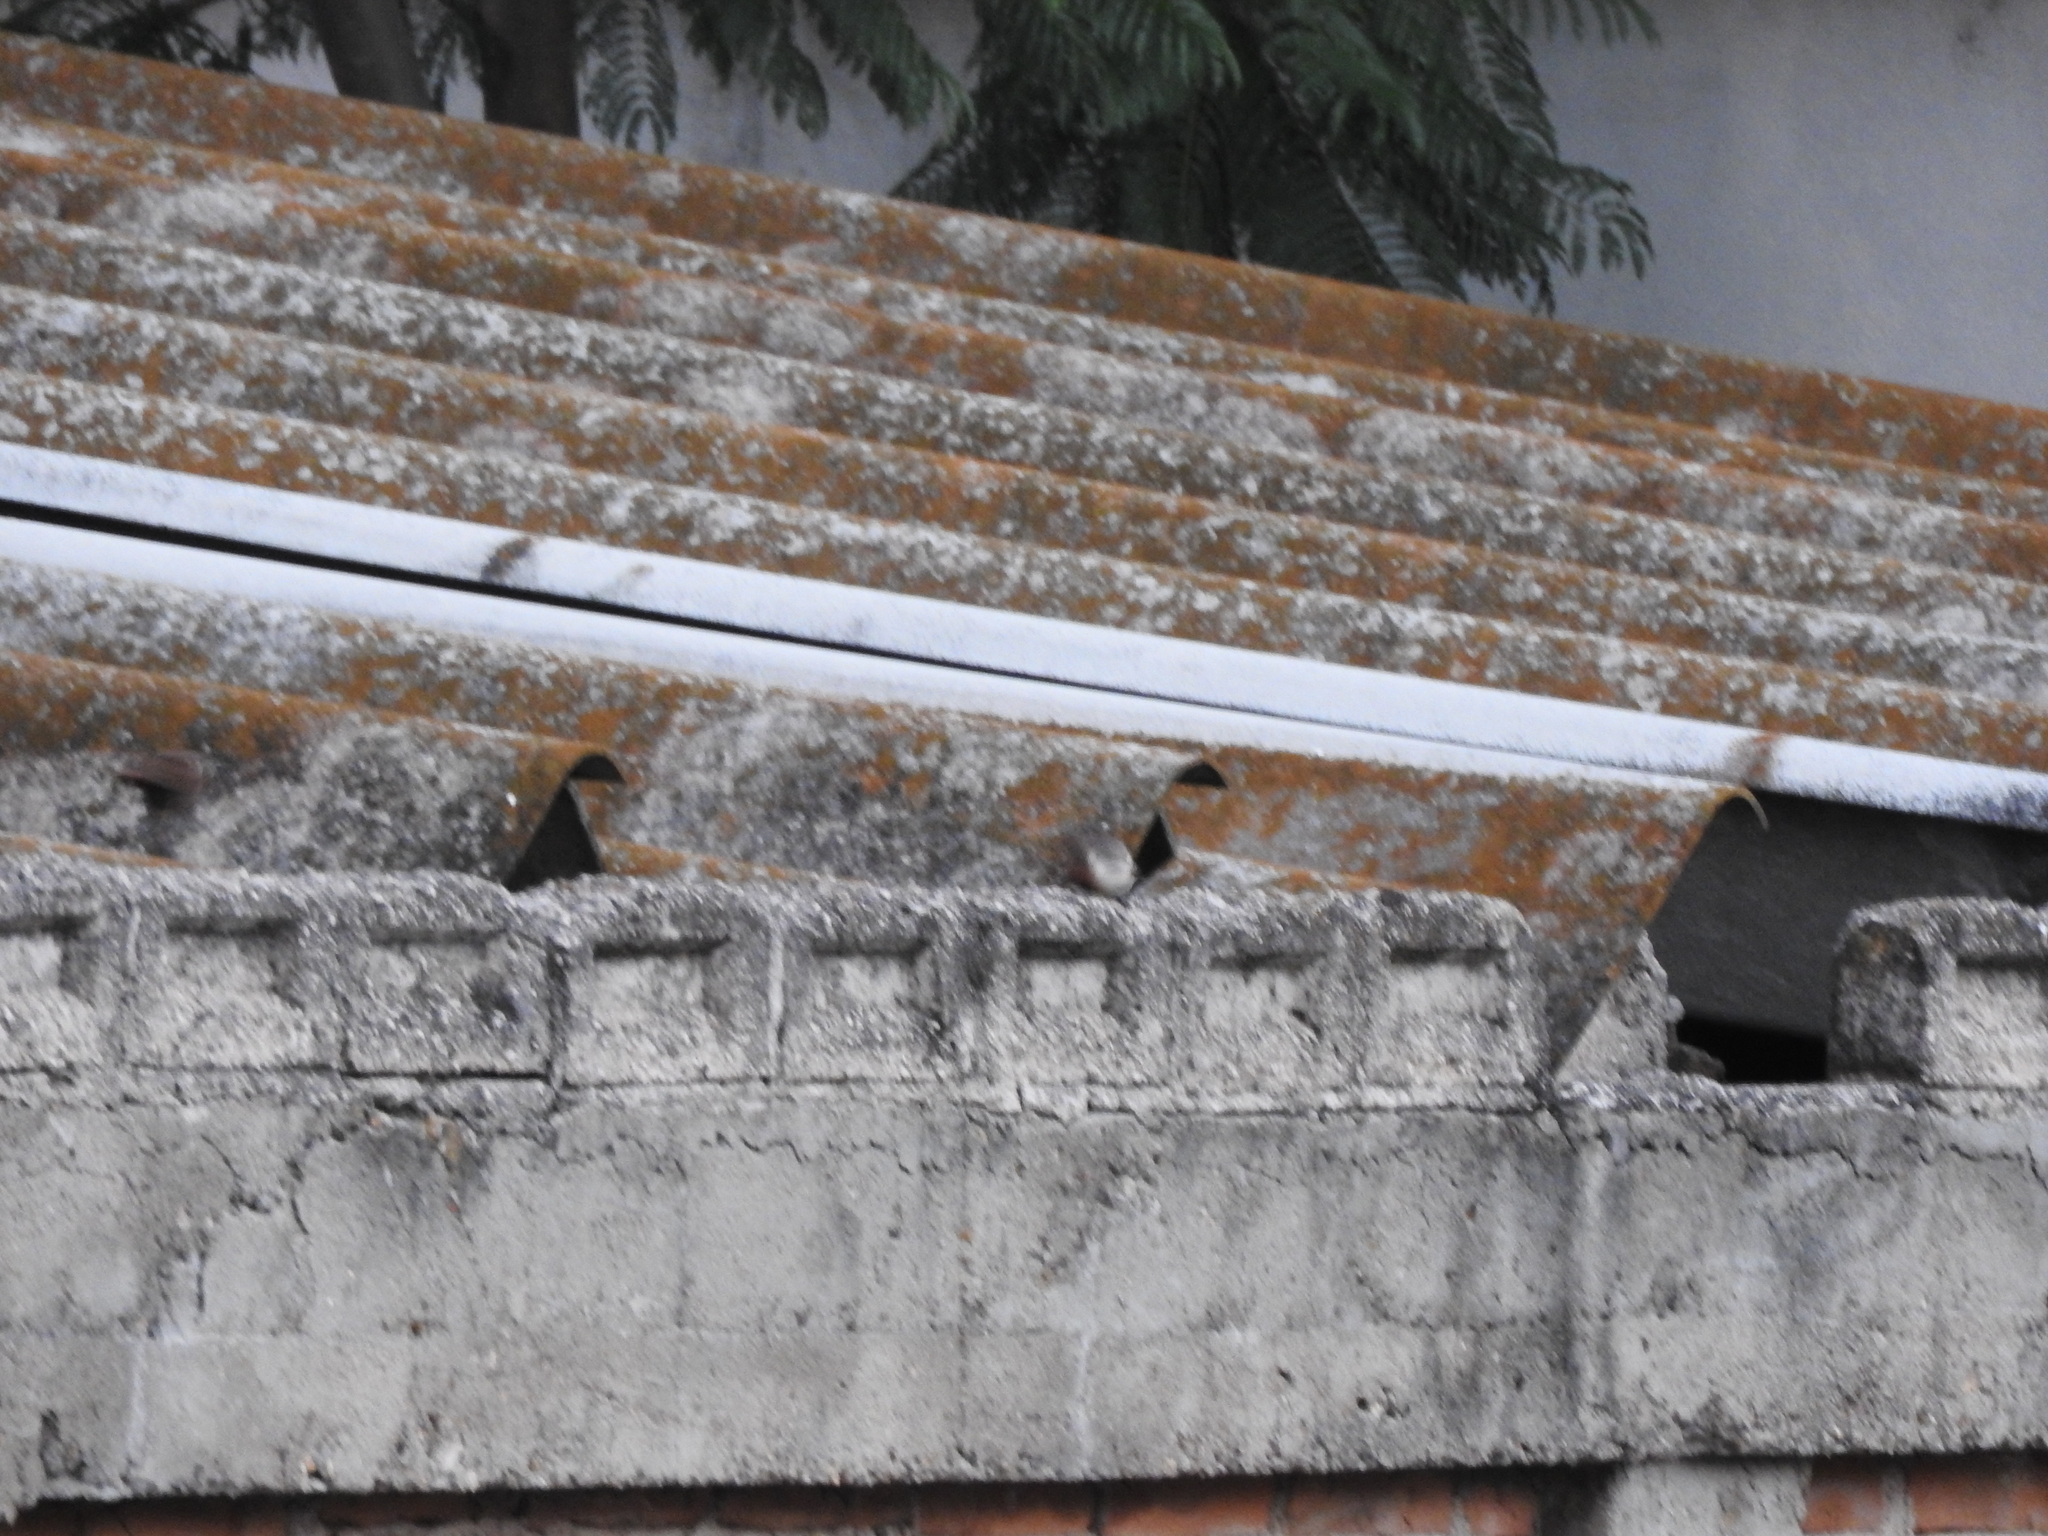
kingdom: Animalia
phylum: Chordata
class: Aves
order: Passeriformes
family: Troglodytidae
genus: Catherpes
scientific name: Catherpes mexicanus
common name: Canyon wren
